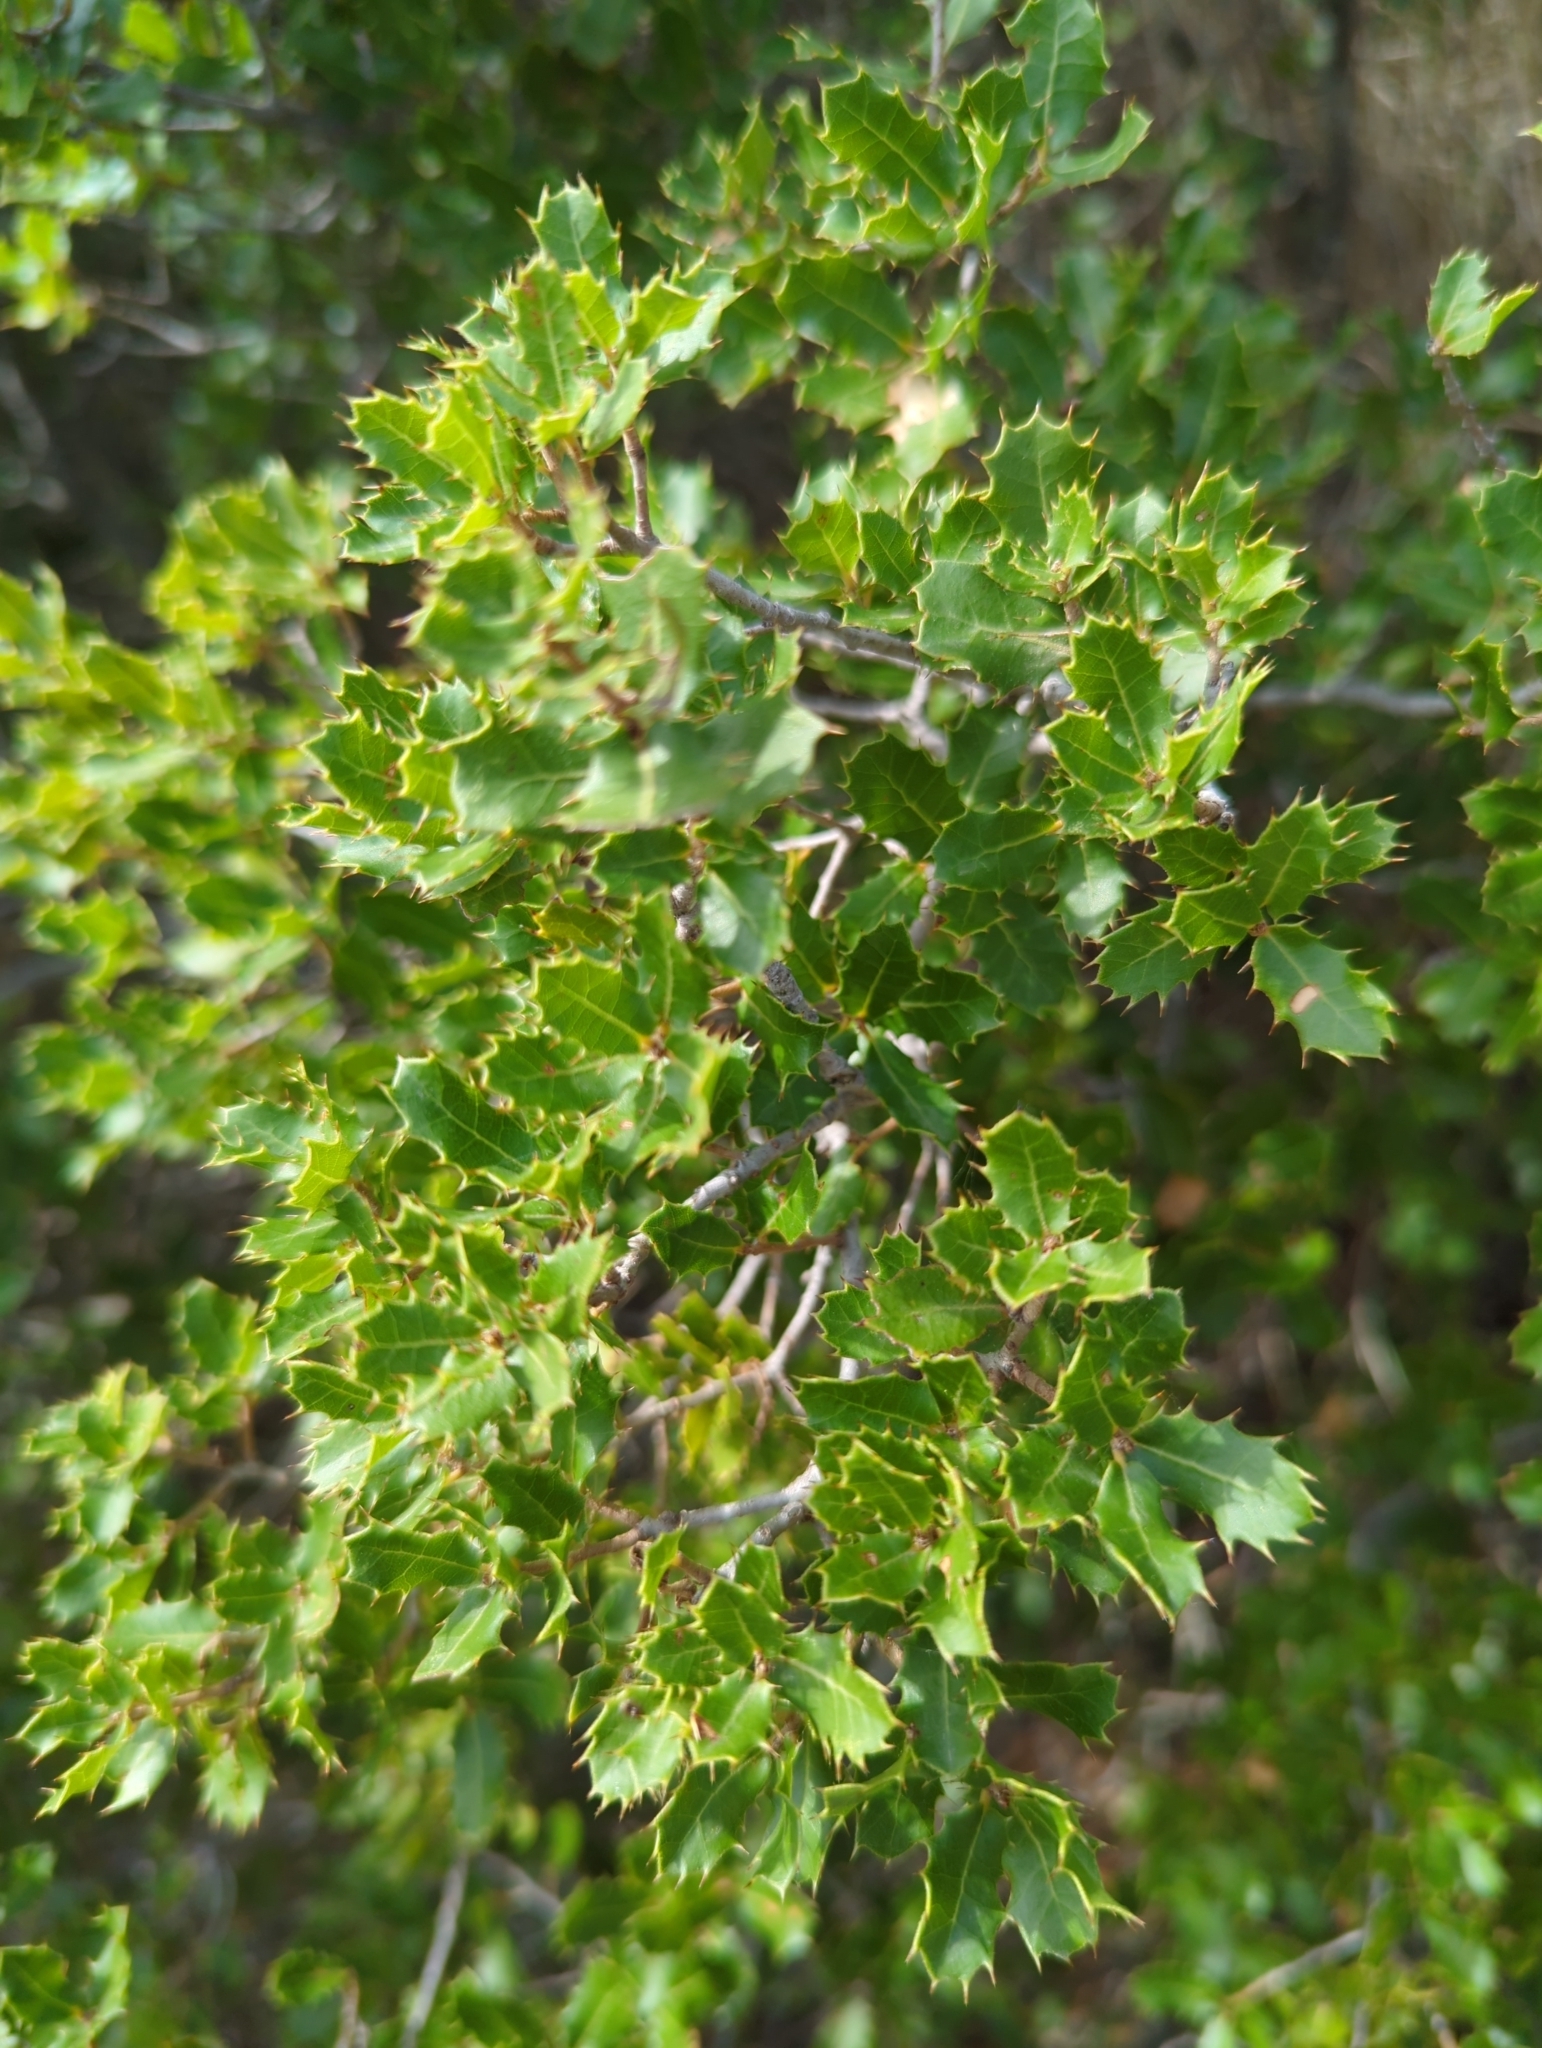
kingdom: Plantae
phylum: Tracheophyta
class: Magnoliopsida
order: Fagales
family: Fagaceae
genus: Quercus
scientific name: Quercus coccifera
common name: Kermes oak
